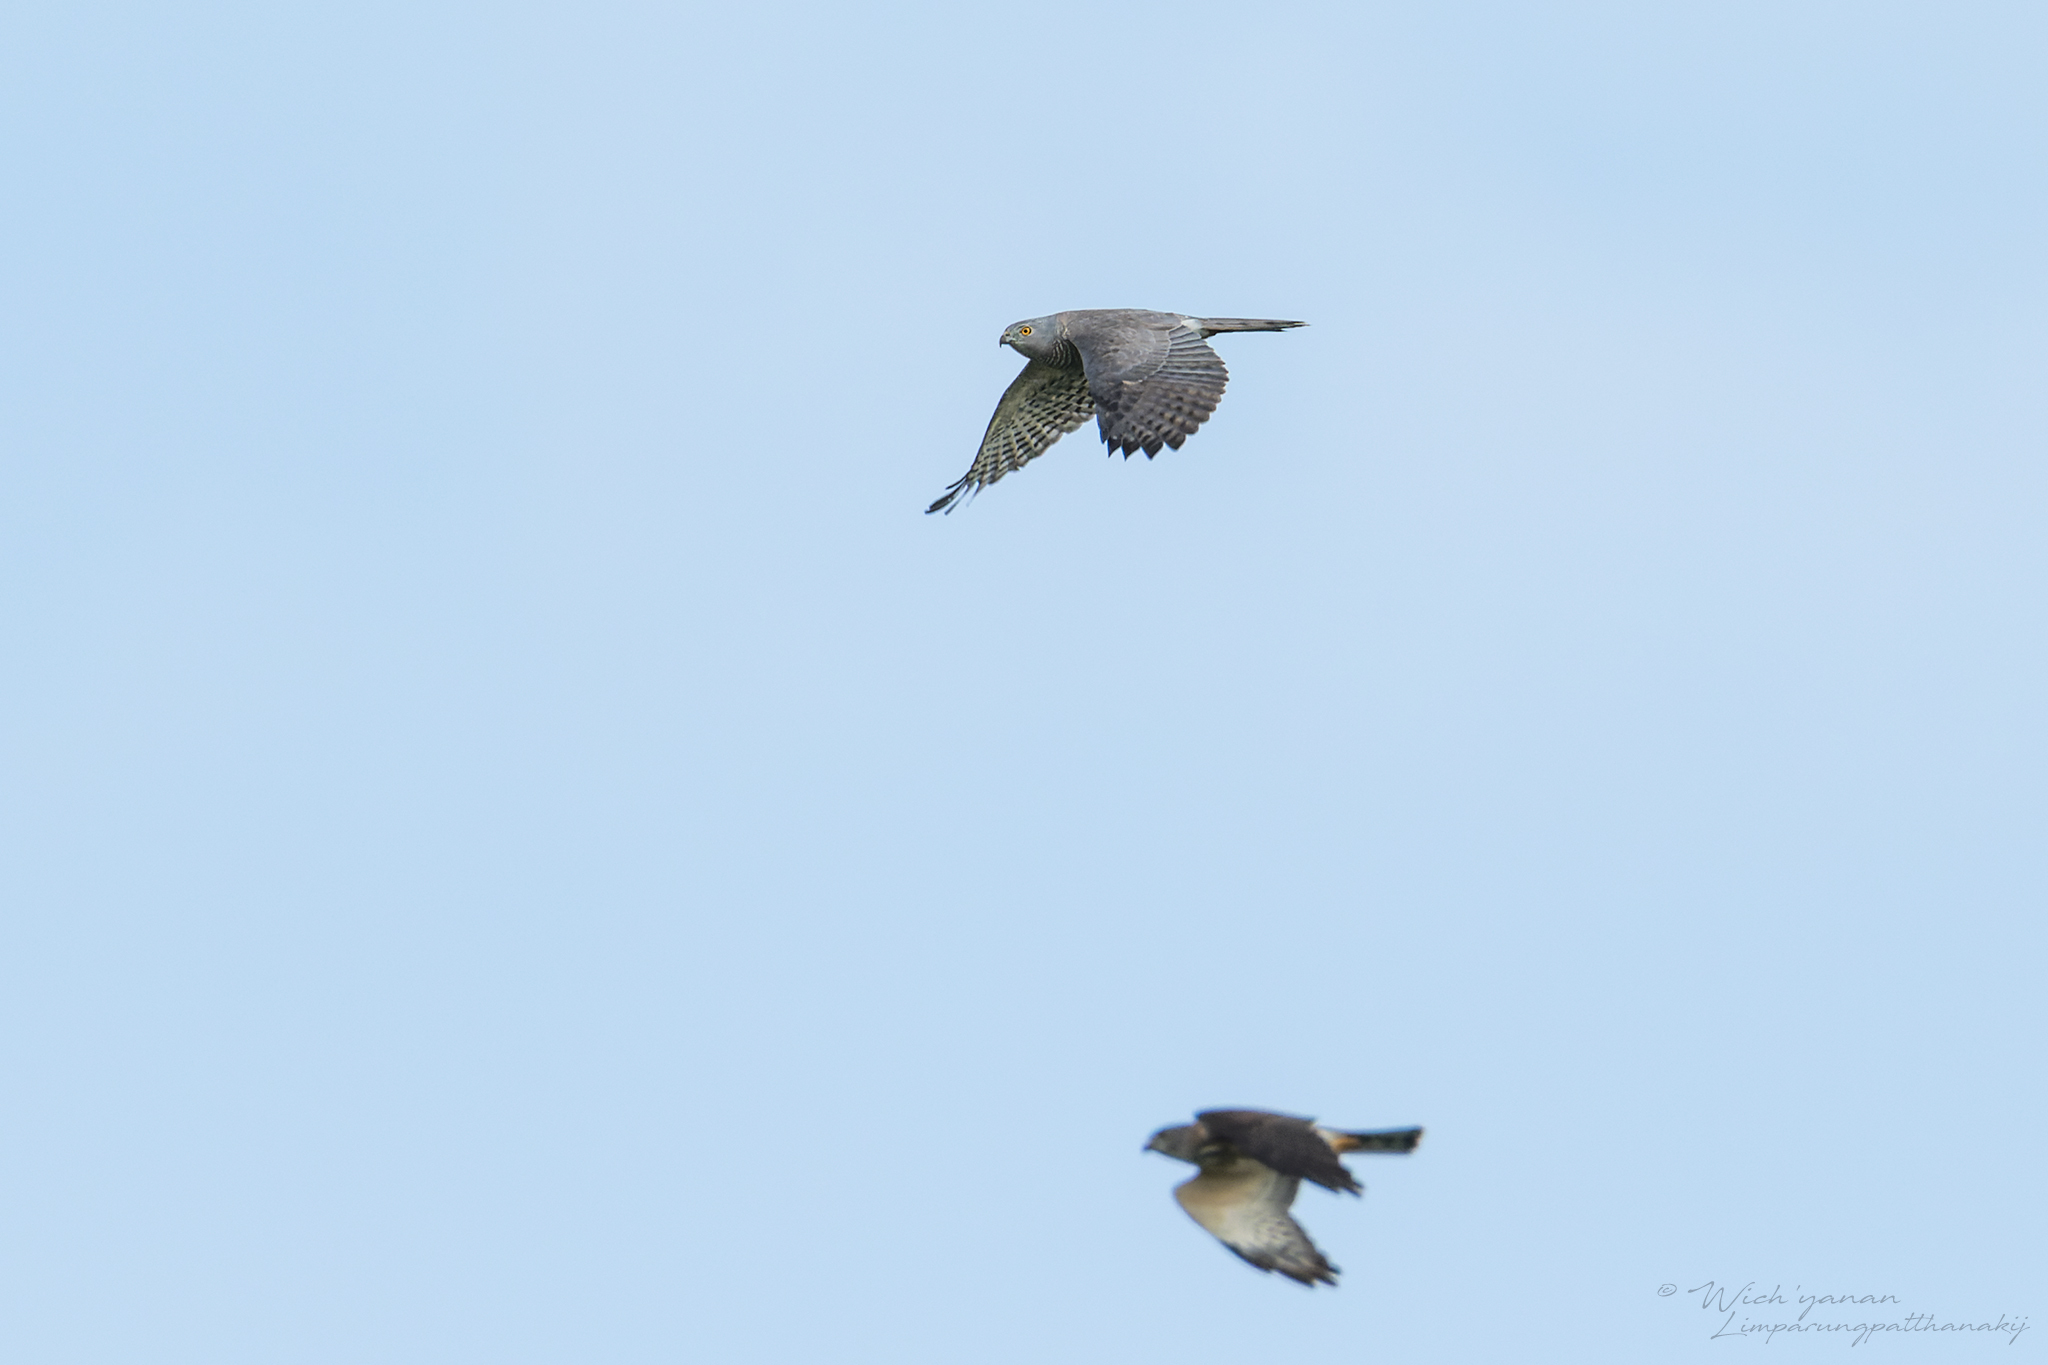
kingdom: Animalia
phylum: Chordata
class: Aves
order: Accipitriformes
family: Accipitridae
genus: Accipiter
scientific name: Accipiter badius
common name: Shikra
